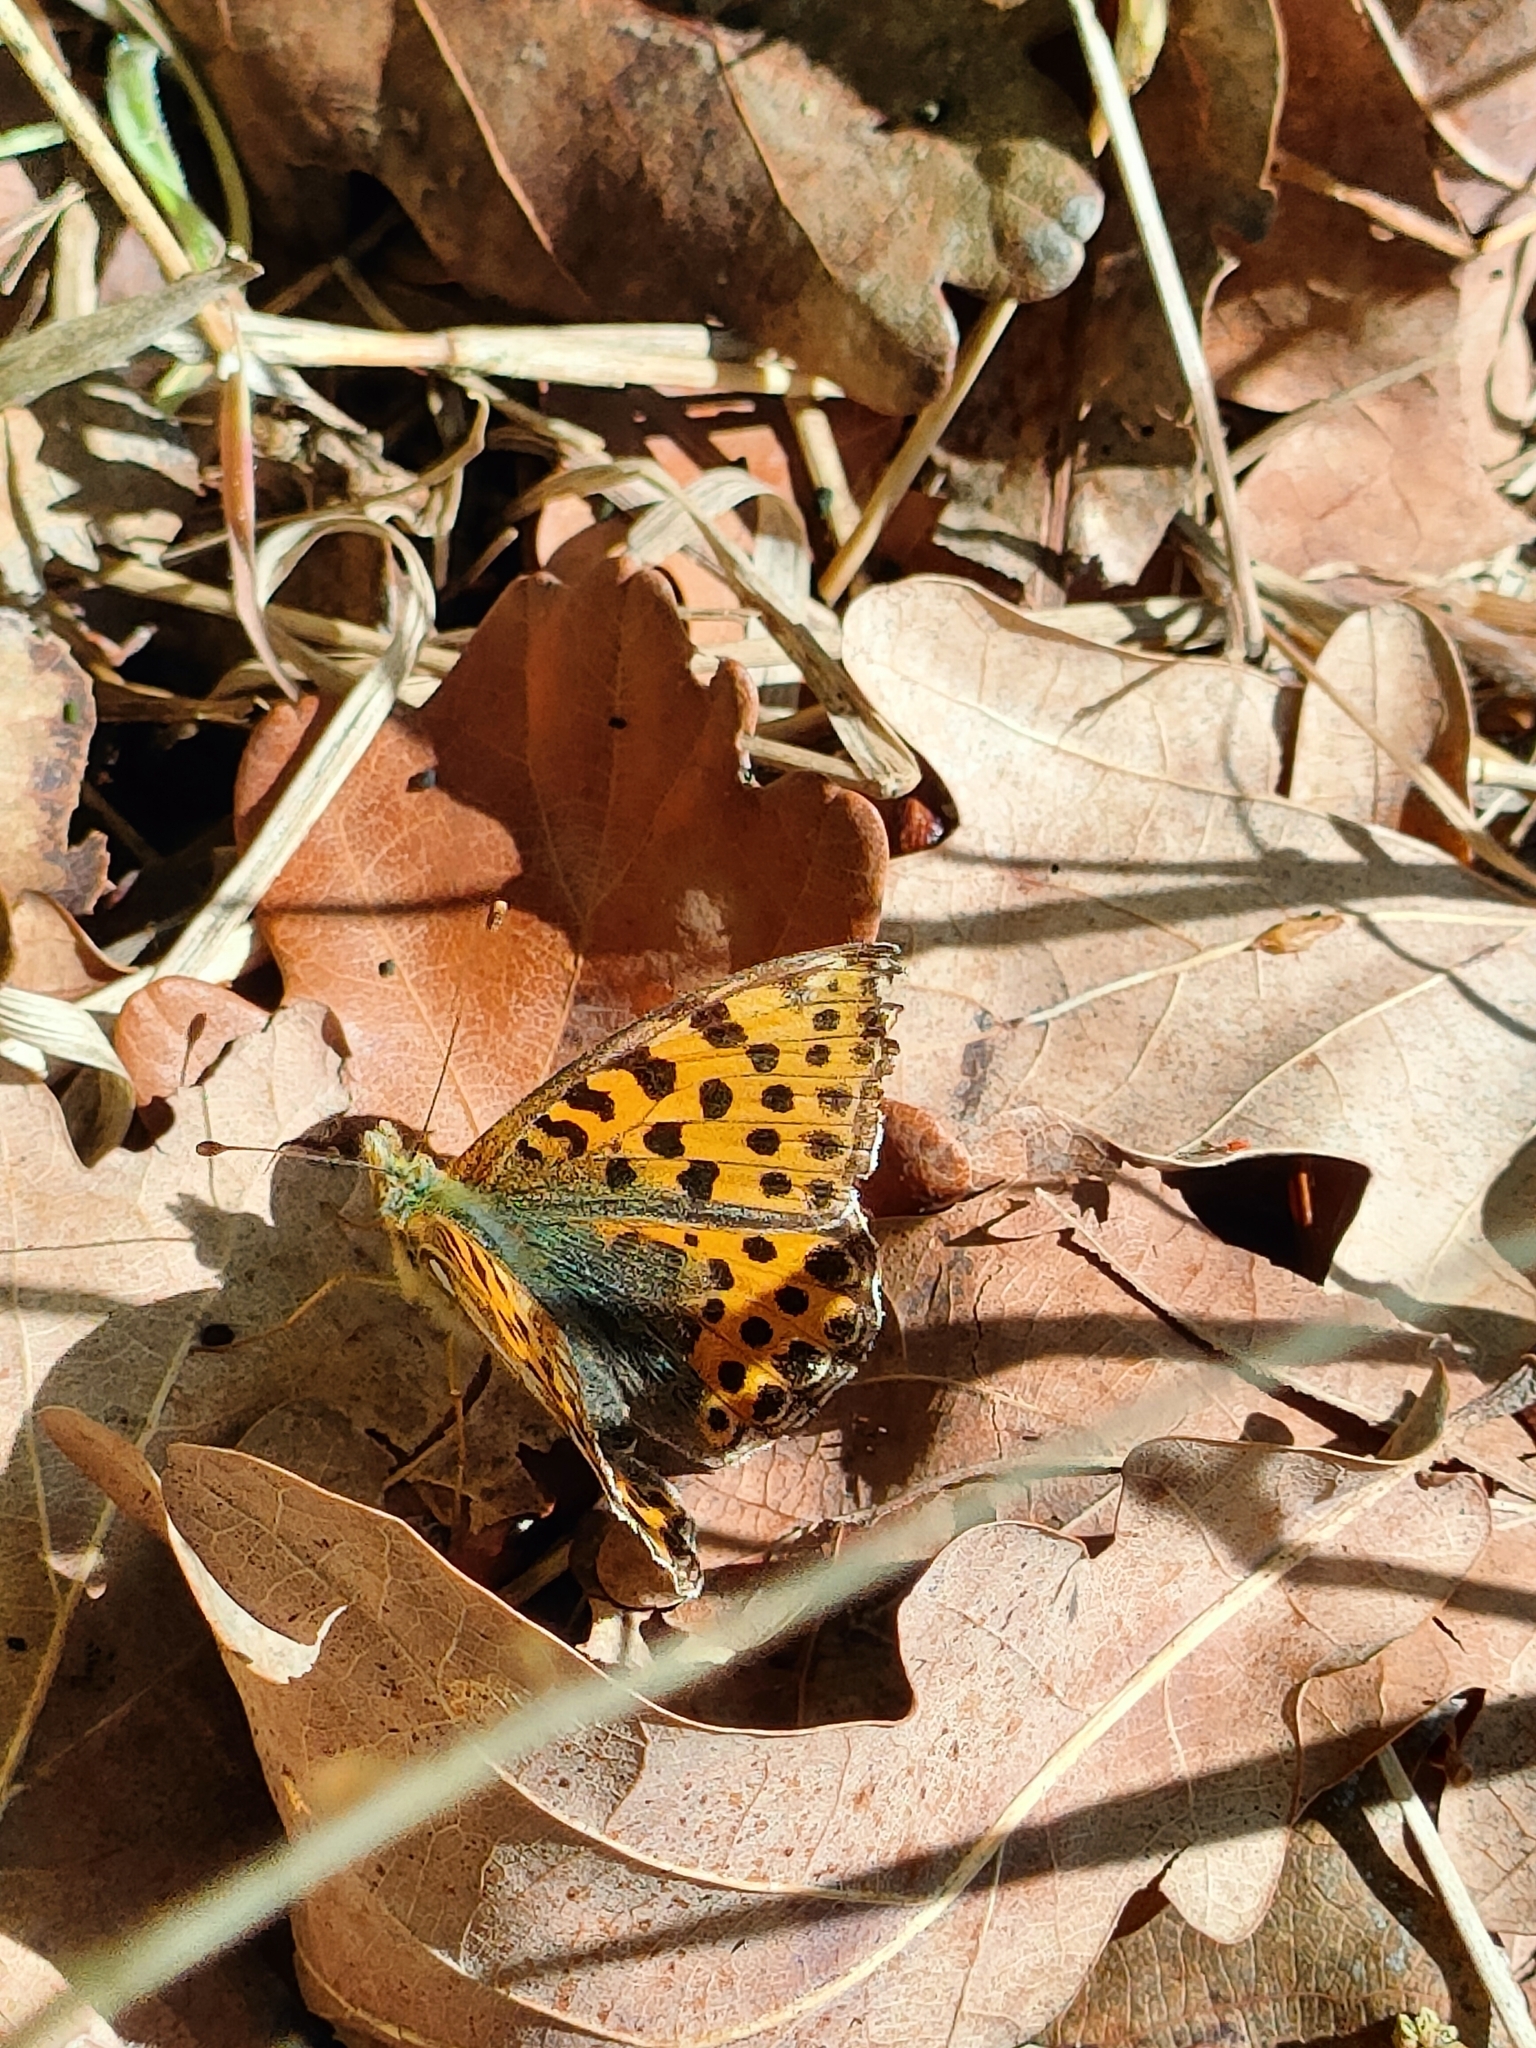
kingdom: Animalia
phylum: Arthropoda
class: Insecta
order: Lepidoptera
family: Nymphalidae
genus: Issoria
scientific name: Issoria lathonia
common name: Queen of spain fritillary
